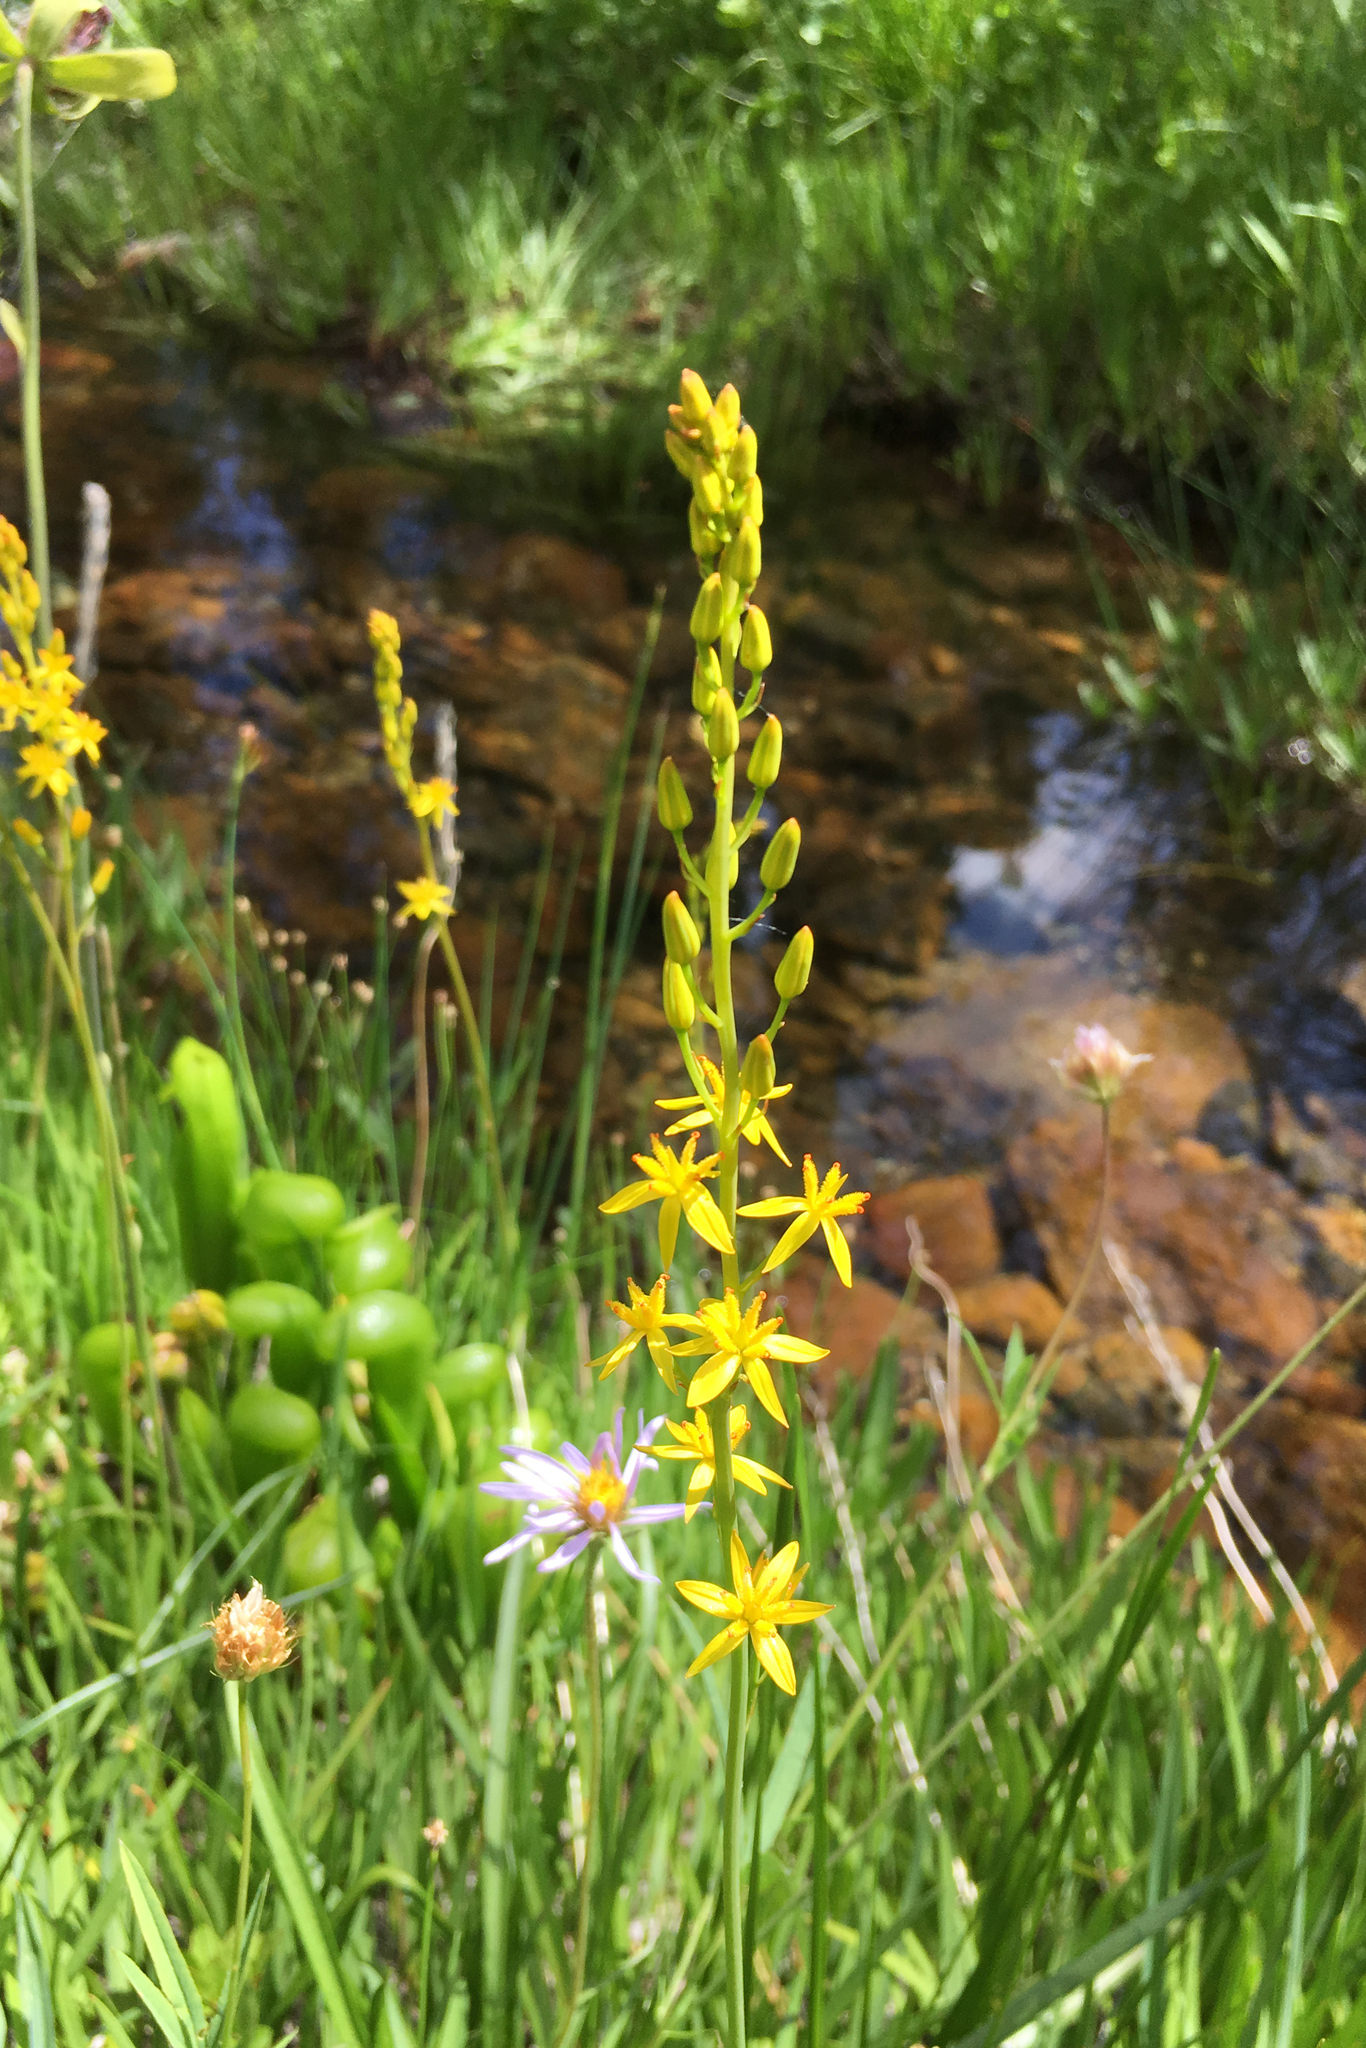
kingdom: Plantae
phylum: Tracheophyta
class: Liliopsida
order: Dioscoreales
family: Nartheciaceae
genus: Narthecium
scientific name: Narthecium californicum
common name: California bog-asphodel
